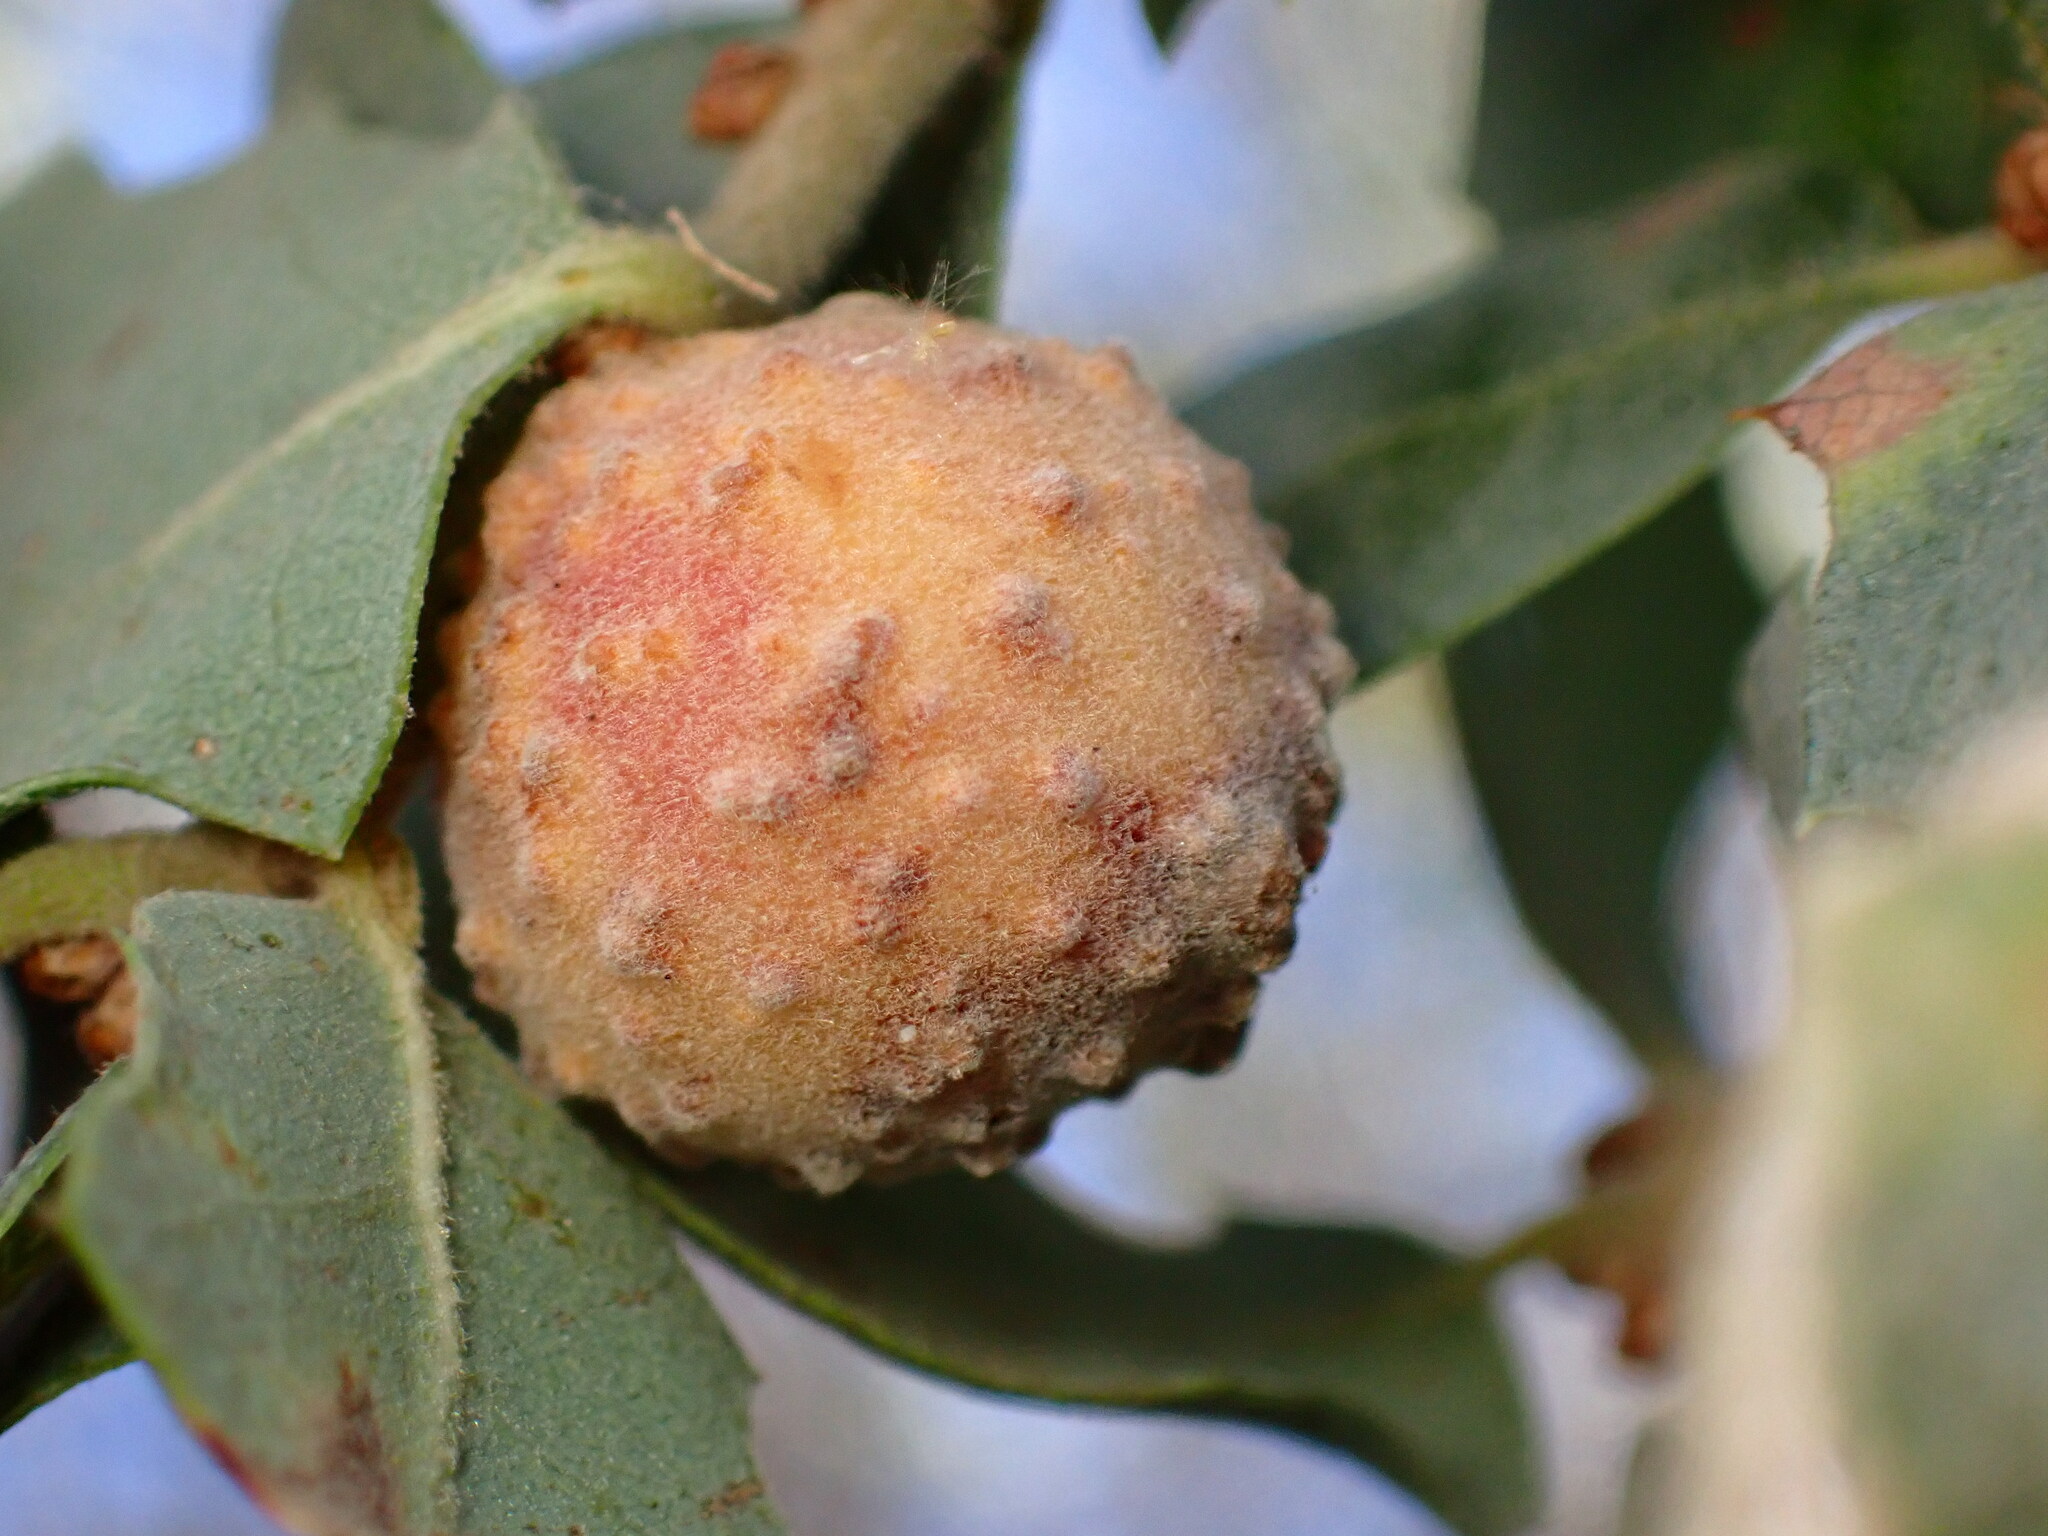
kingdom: Animalia
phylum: Arthropoda
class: Insecta
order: Hymenoptera
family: Cynipidae
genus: Cynips
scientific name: Cynips conspicua
